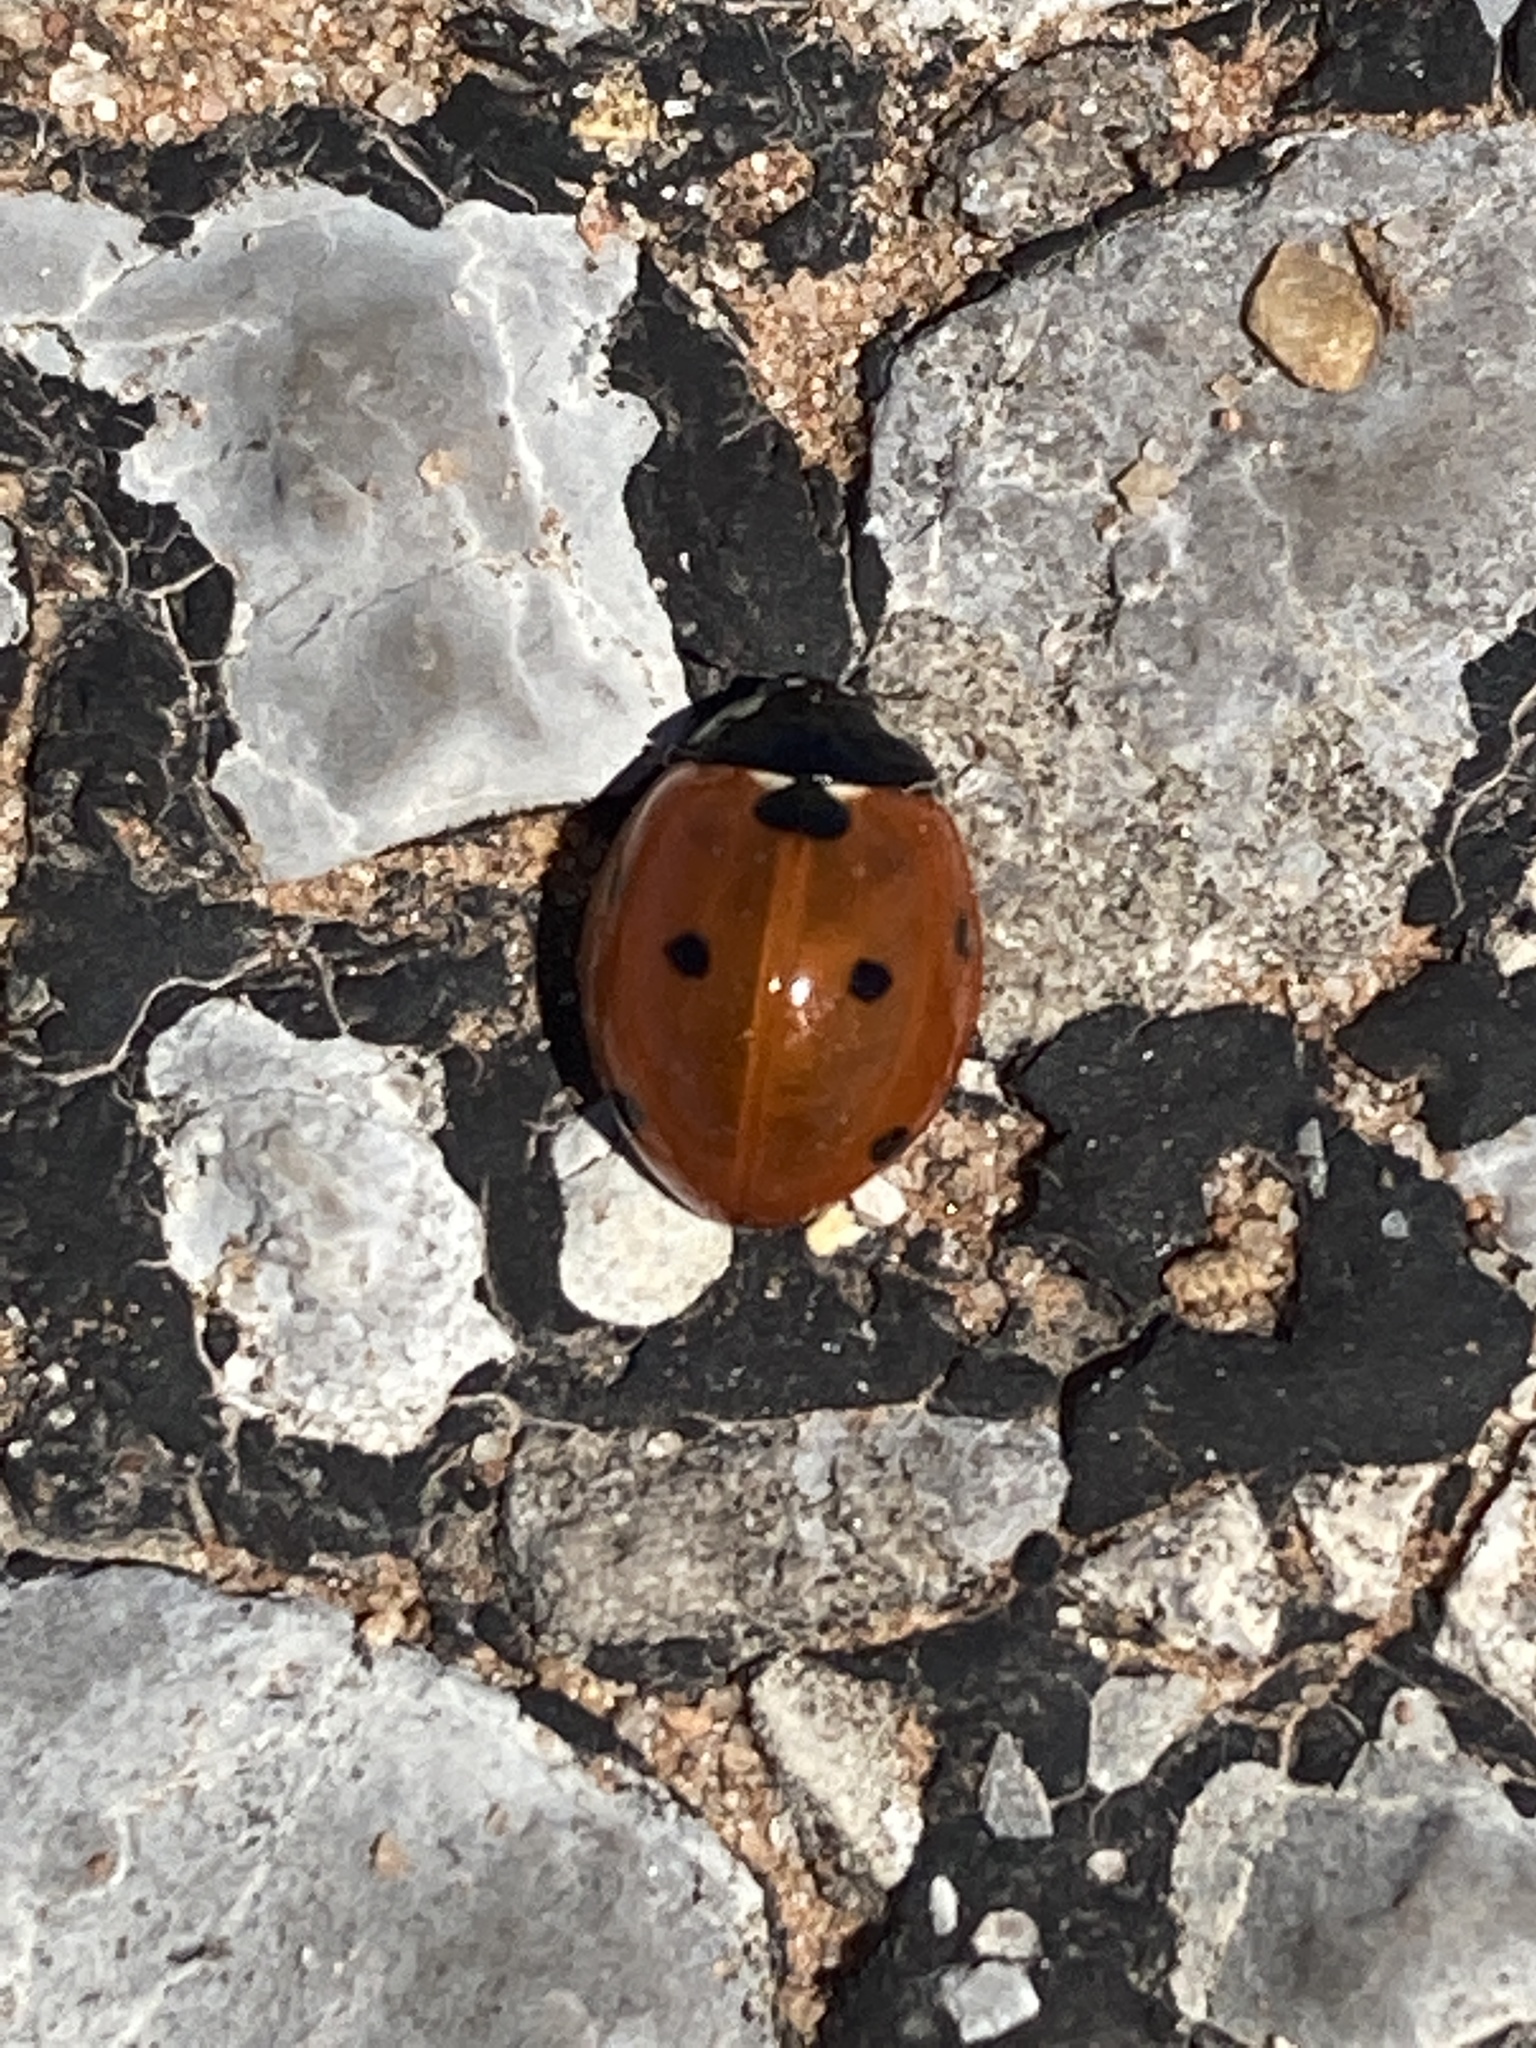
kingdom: Animalia
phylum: Arthropoda
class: Insecta
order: Coleoptera
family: Coccinellidae
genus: Coccinella
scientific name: Coccinella septempunctata
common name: Sevenspotted lady beetle
